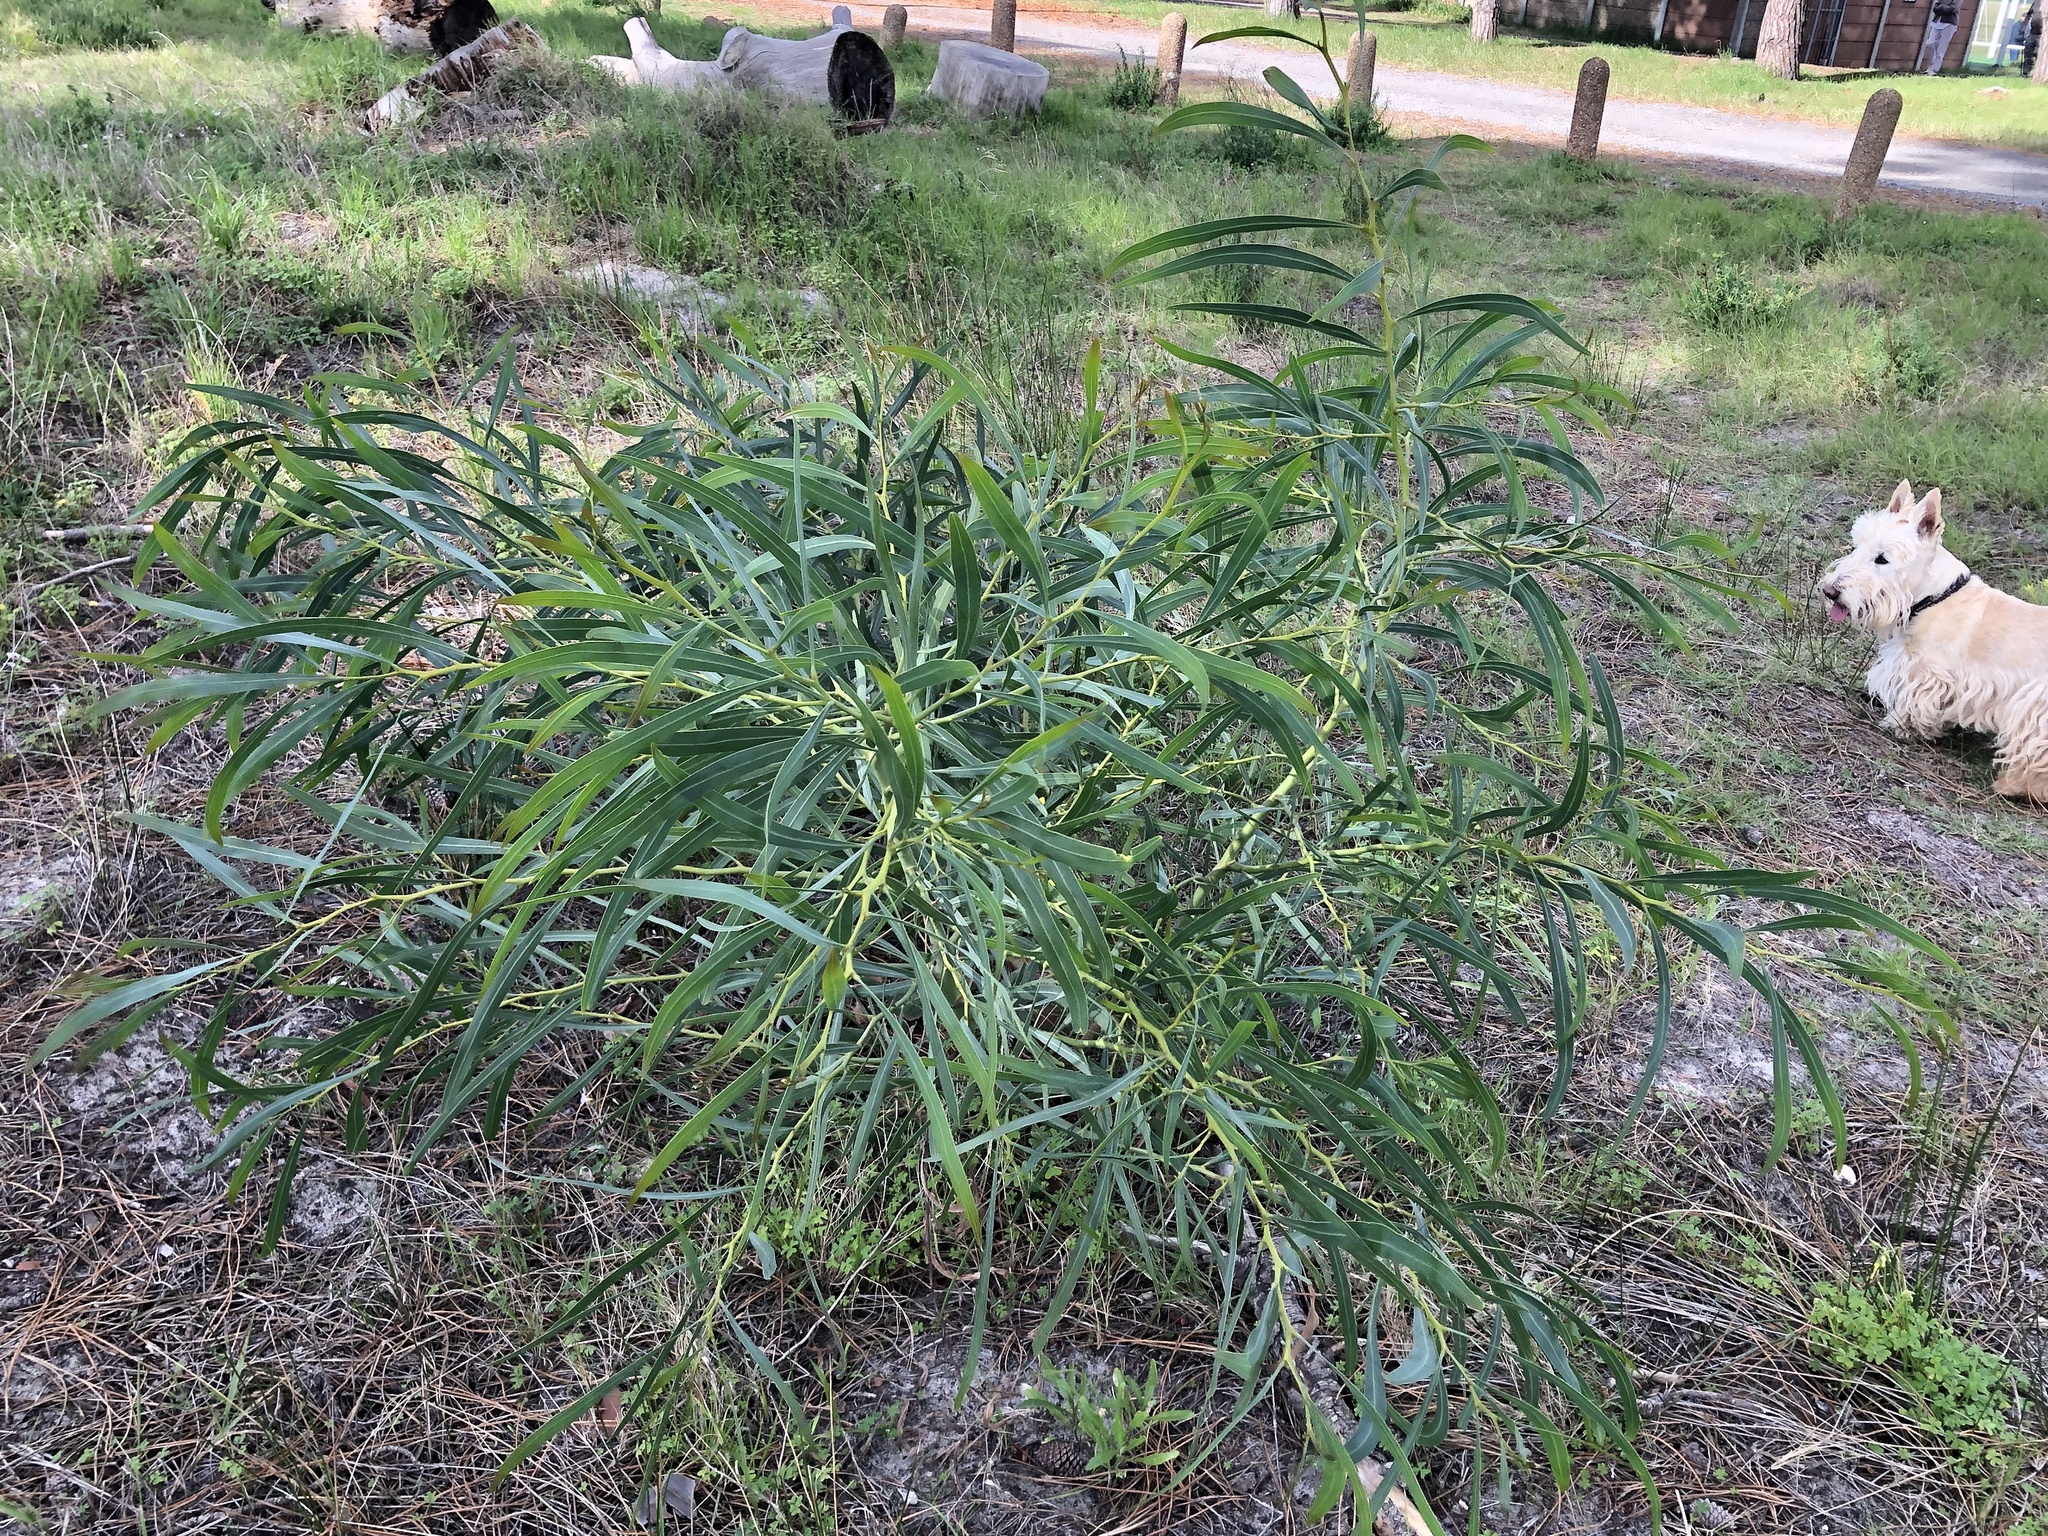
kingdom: Plantae
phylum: Tracheophyta
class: Magnoliopsida
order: Fabales
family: Fabaceae
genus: Acacia
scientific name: Acacia saligna
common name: Orange wattle
